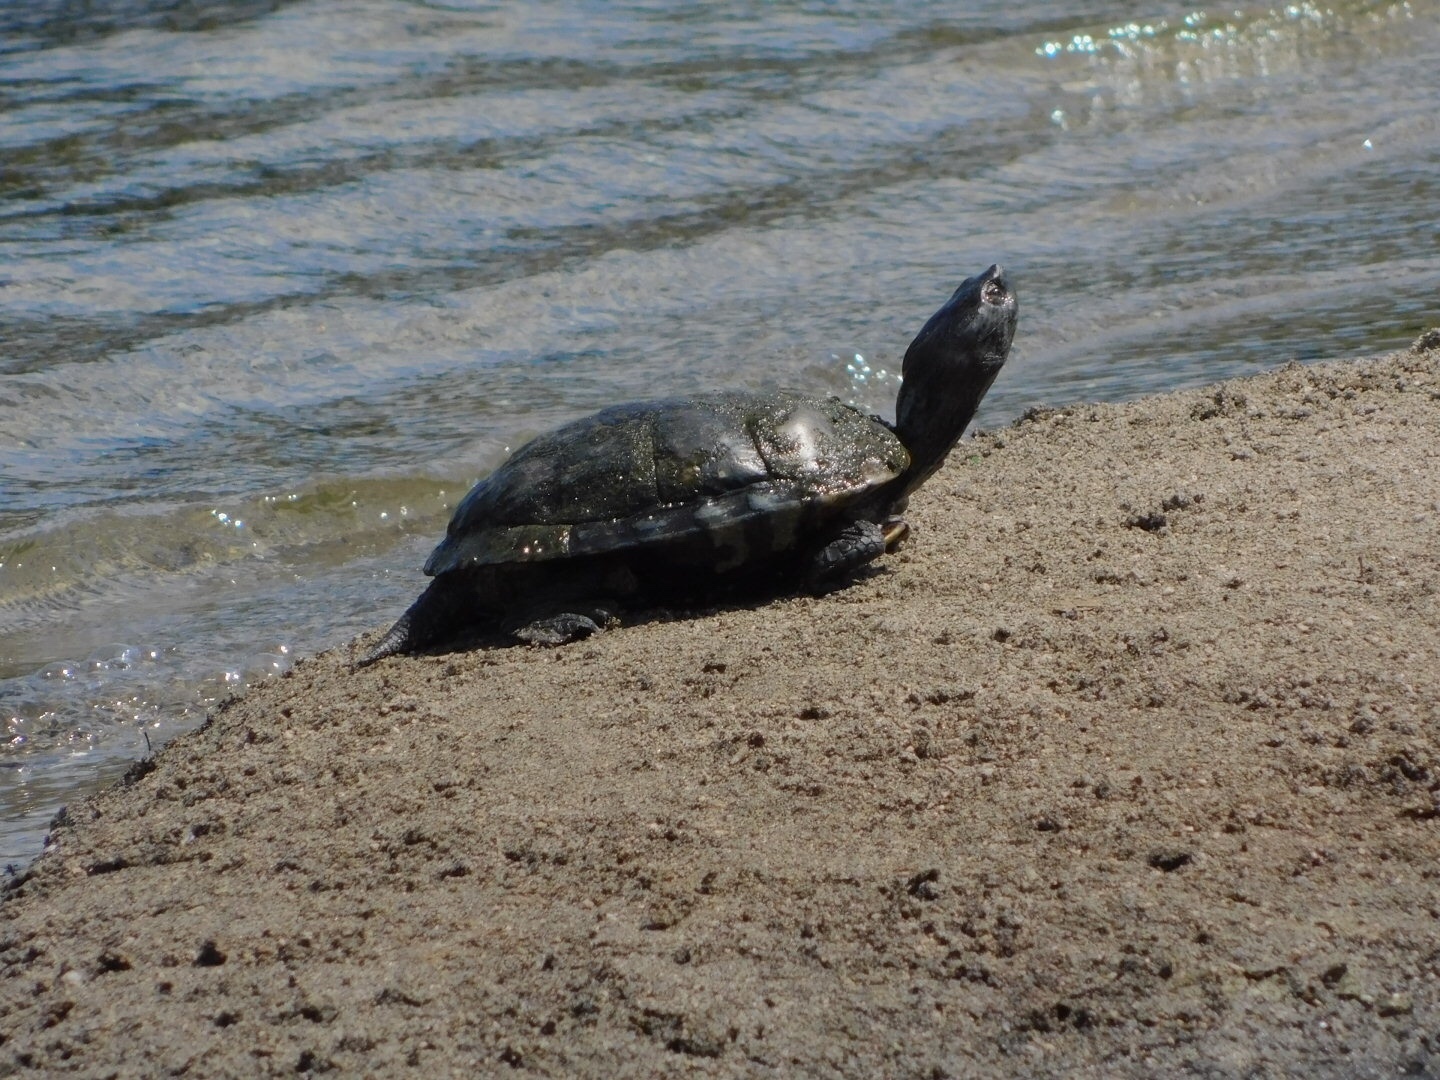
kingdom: Animalia
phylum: Chordata
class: Testudines
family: Emydidae
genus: Trachemys
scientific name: Trachemys scripta
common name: Slider
